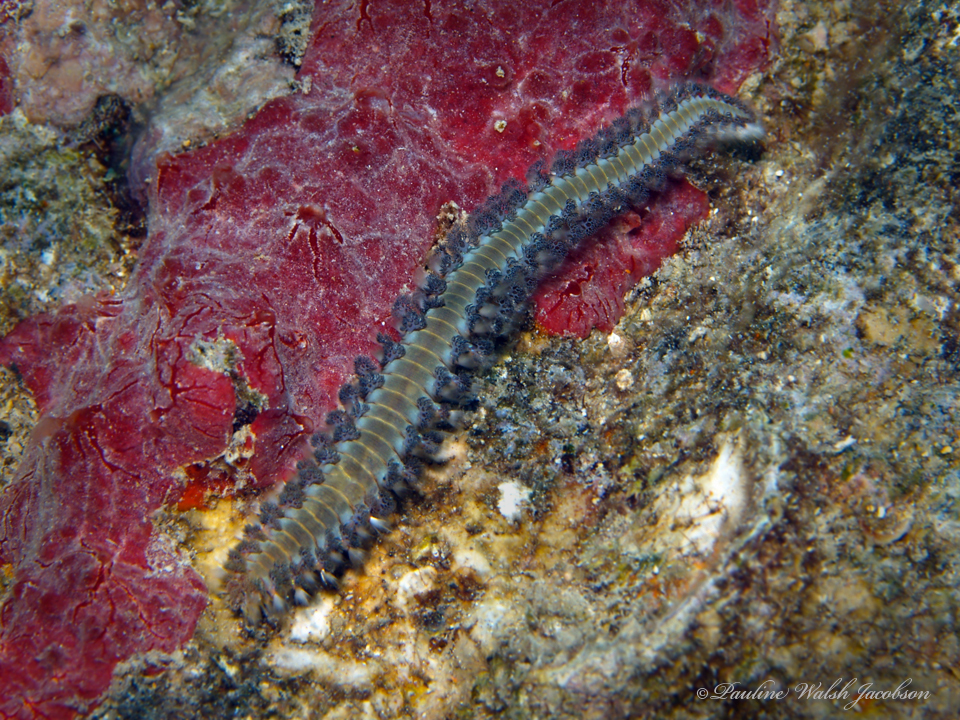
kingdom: Animalia
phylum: Annelida
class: Polychaeta
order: Amphinomida
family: Amphinomidae
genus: Hermodice
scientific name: Hermodice carunculata
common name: Bearded fireworm
